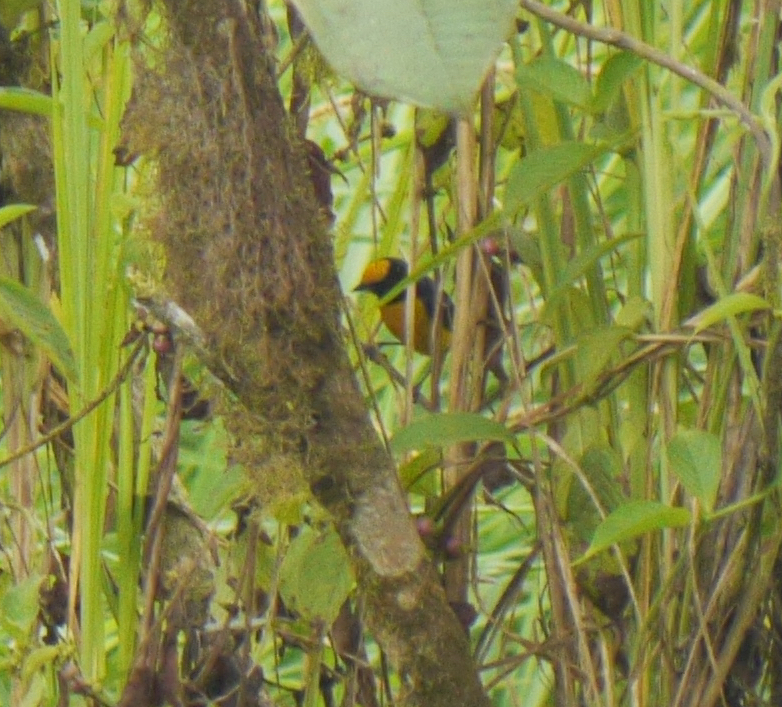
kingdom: Animalia
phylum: Chordata
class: Aves
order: Passeriformes
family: Fringillidae
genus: Euphonia
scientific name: Euphonia xanthogaster
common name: Orange-bellied euphonia
